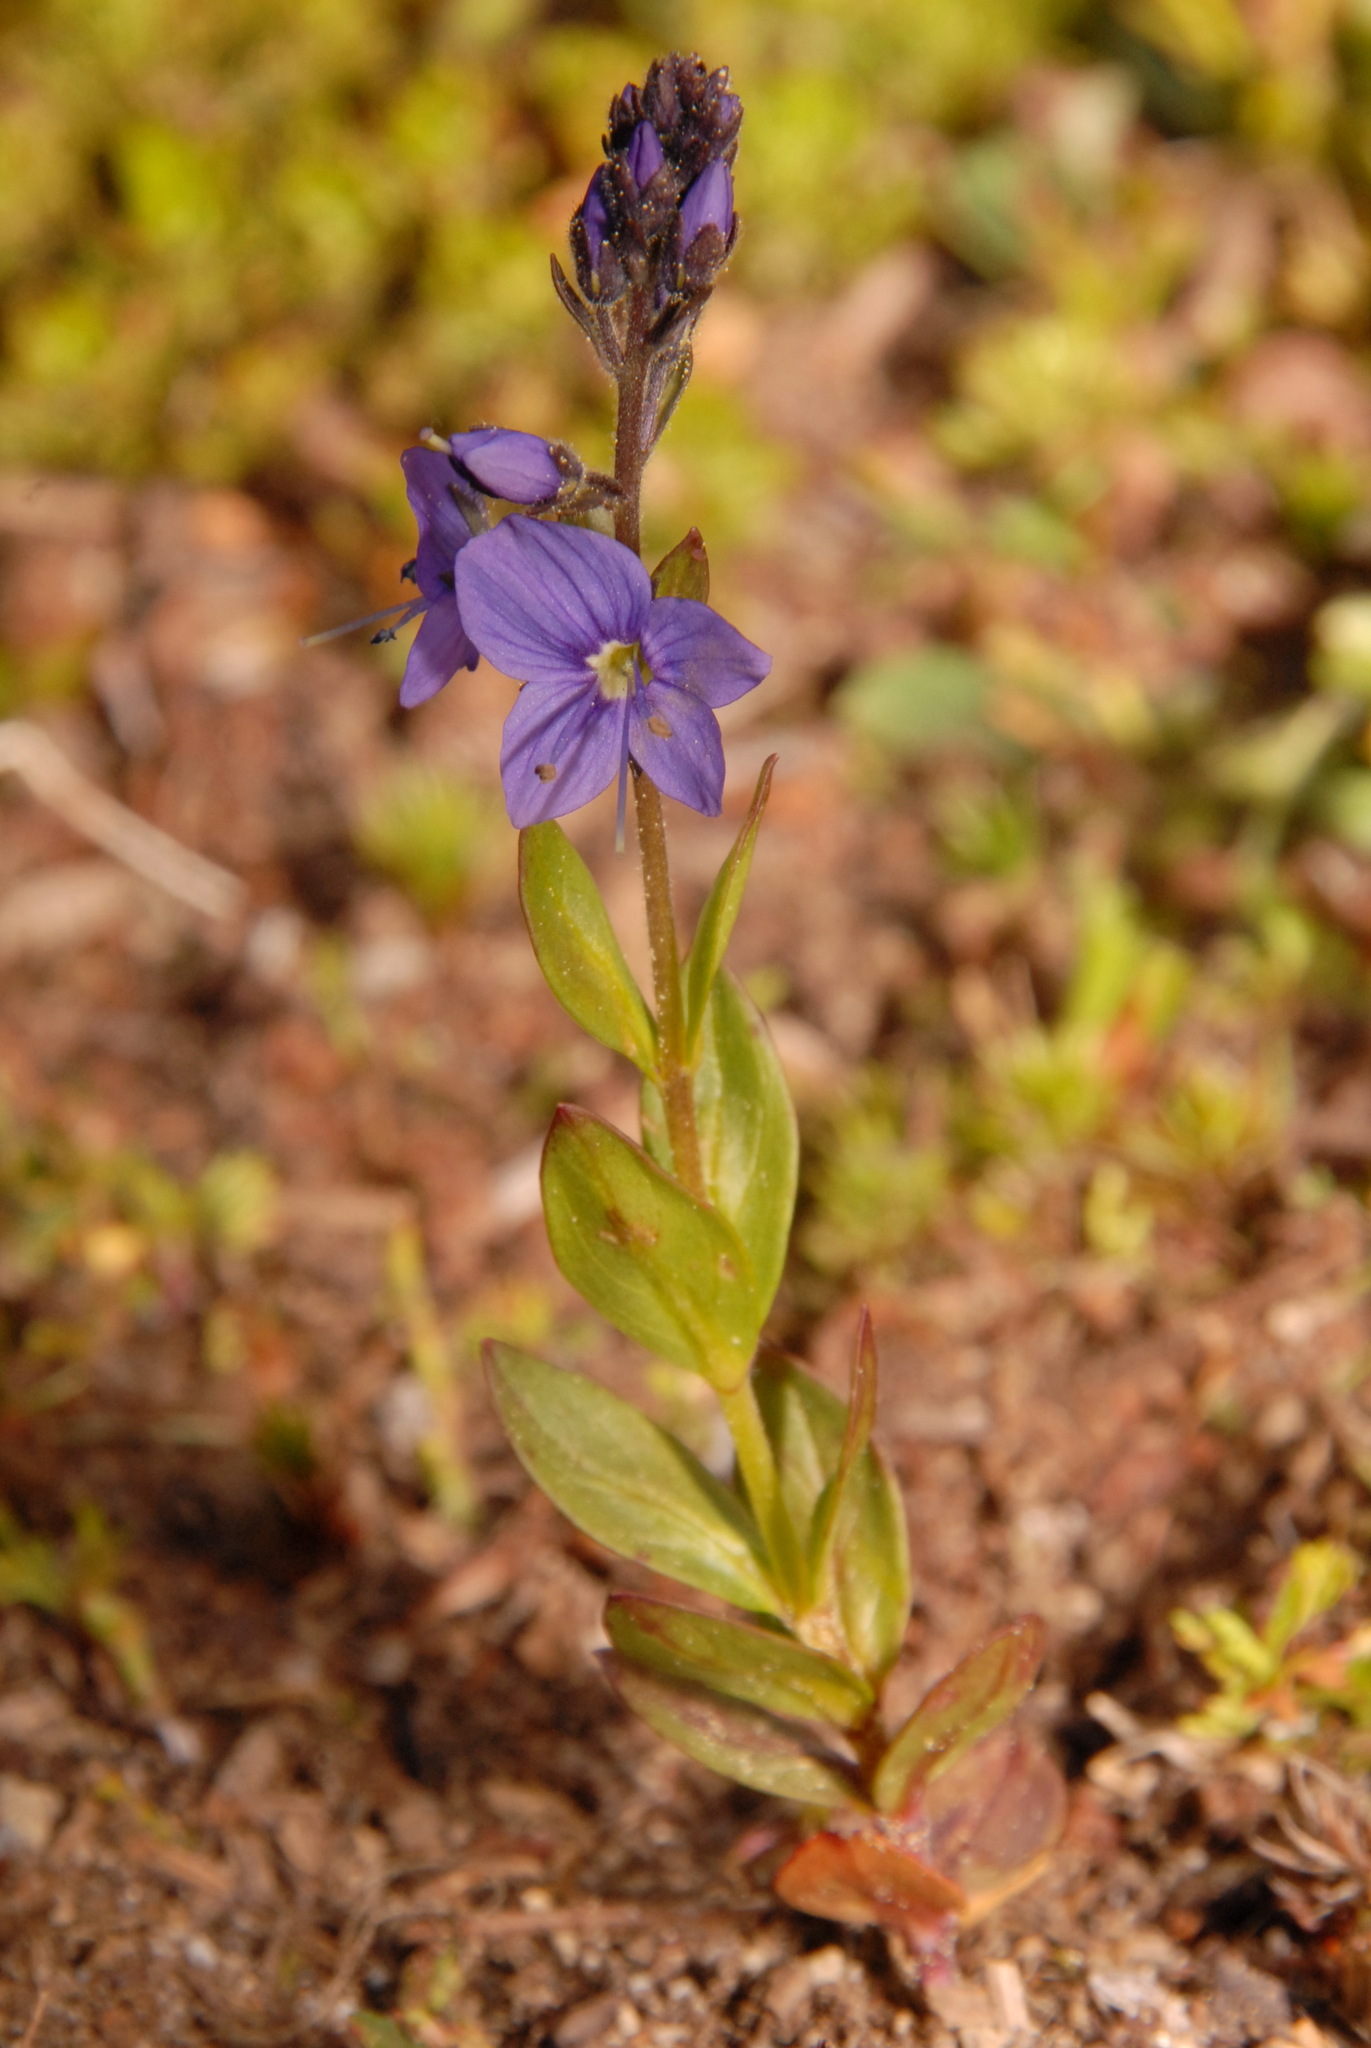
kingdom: Plantae
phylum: Tracheophyta
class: Magnoliopsida
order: Lamiales
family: Plantaginaceae
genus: Veronica
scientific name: Veronica cusickii
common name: Cusick's speedwell
